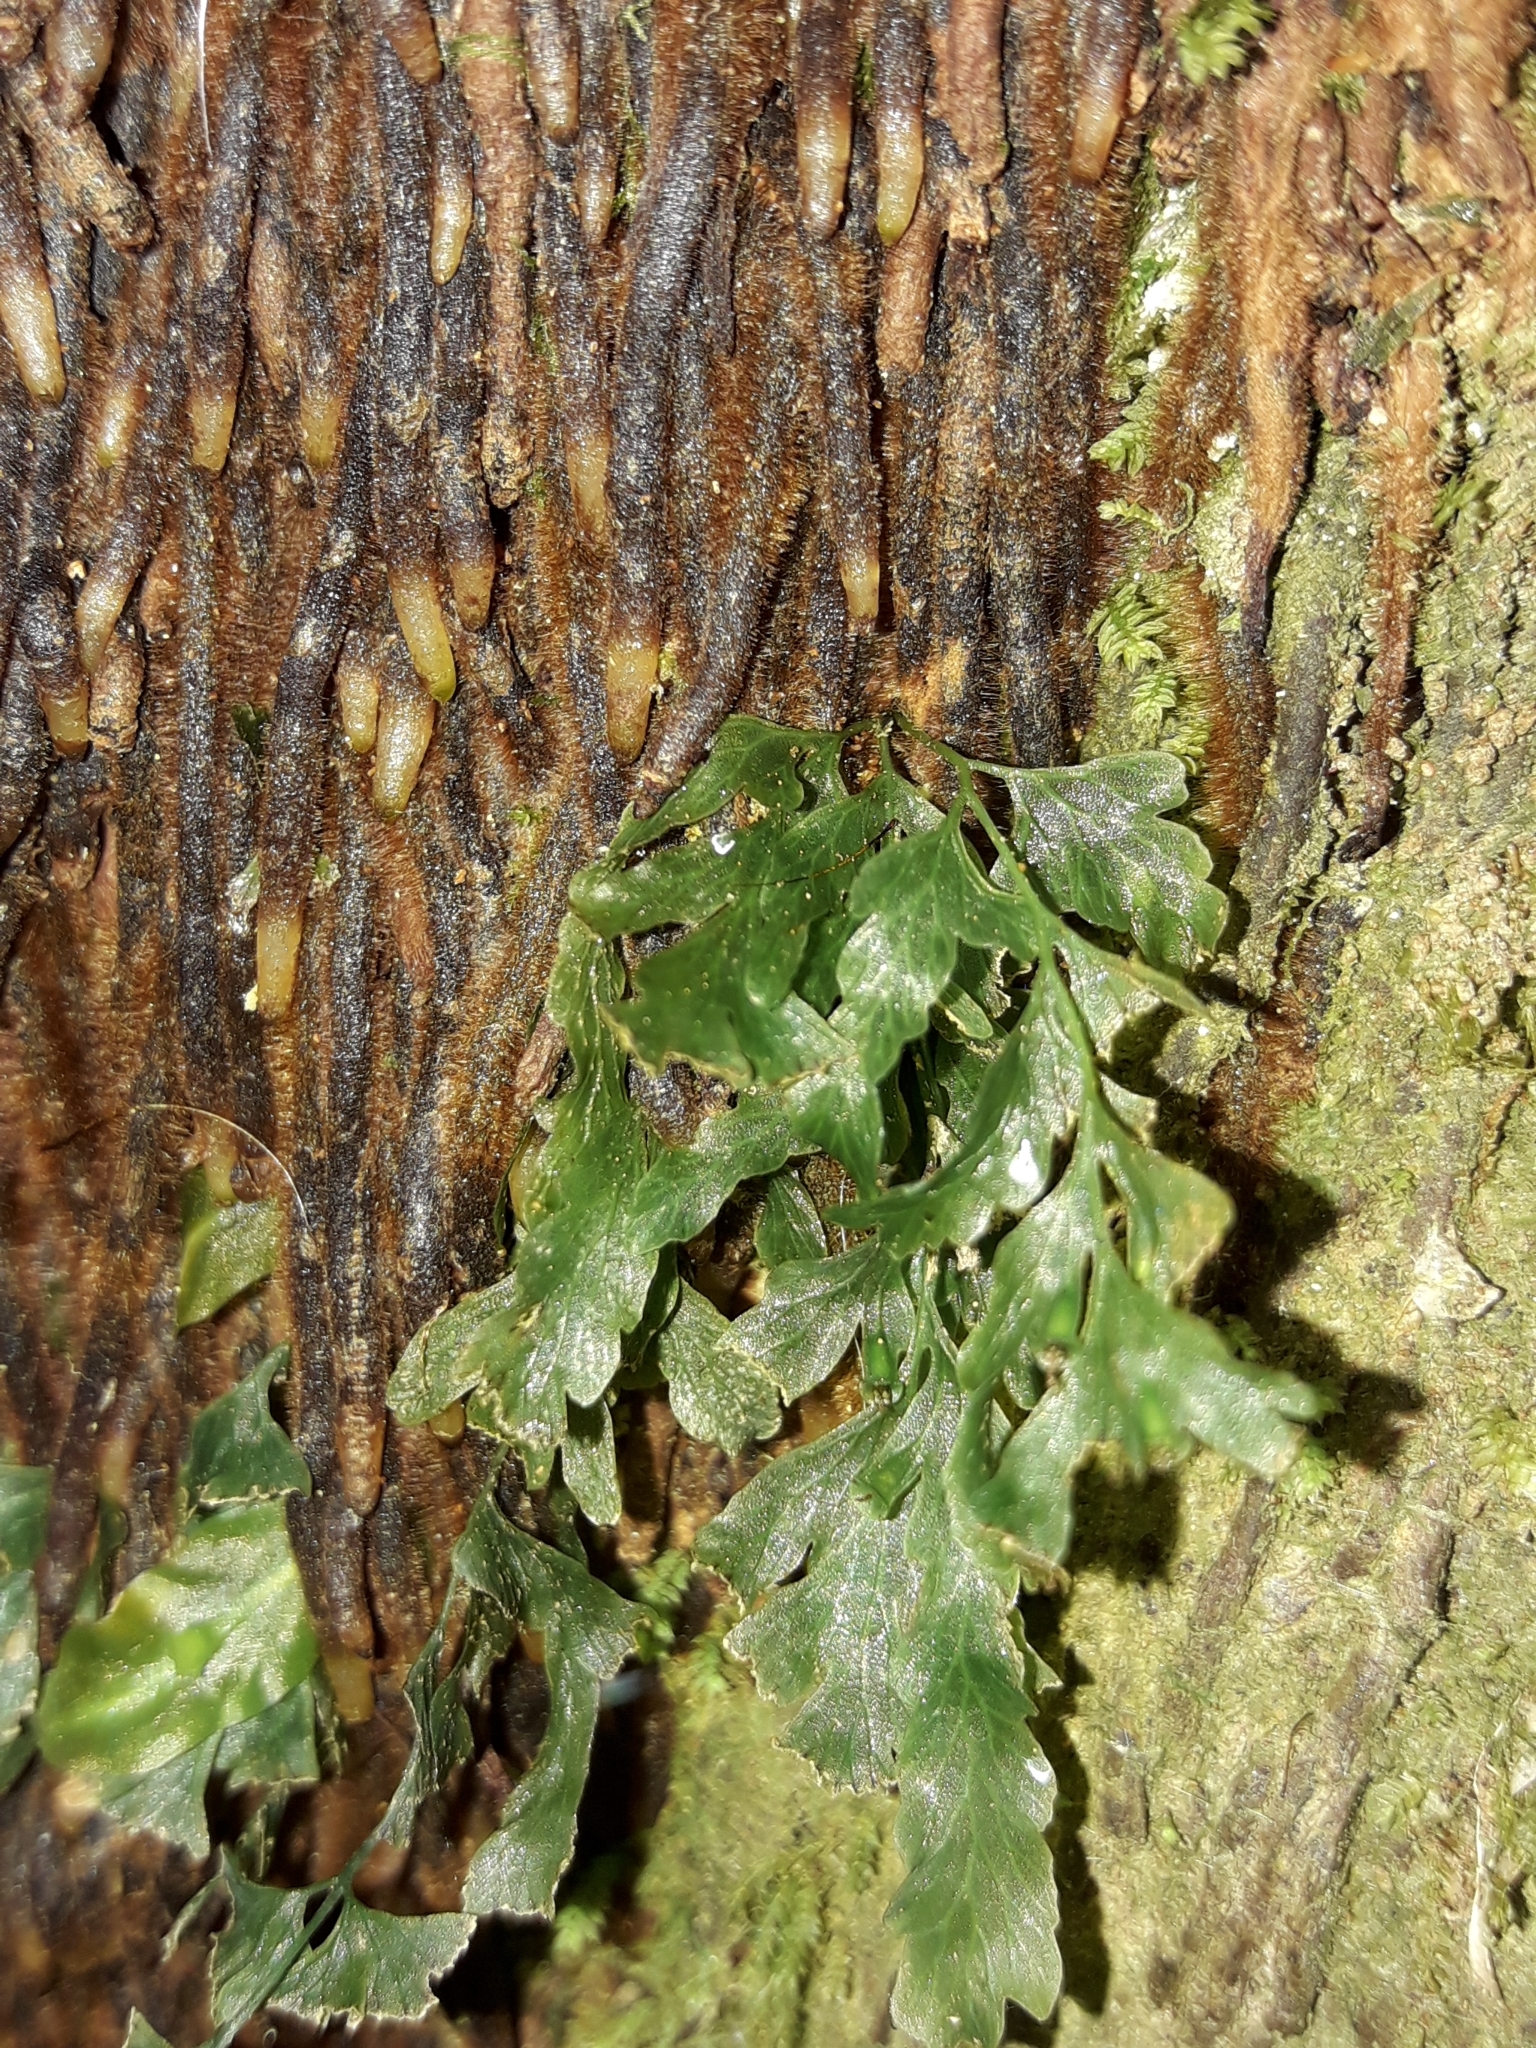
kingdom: Plantae
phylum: Tracheophyta
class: Polypodiopsida
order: Hymenophyllales
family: Hymenophyllaceae
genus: Polyphlebium
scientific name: Polyphlebium venosum
